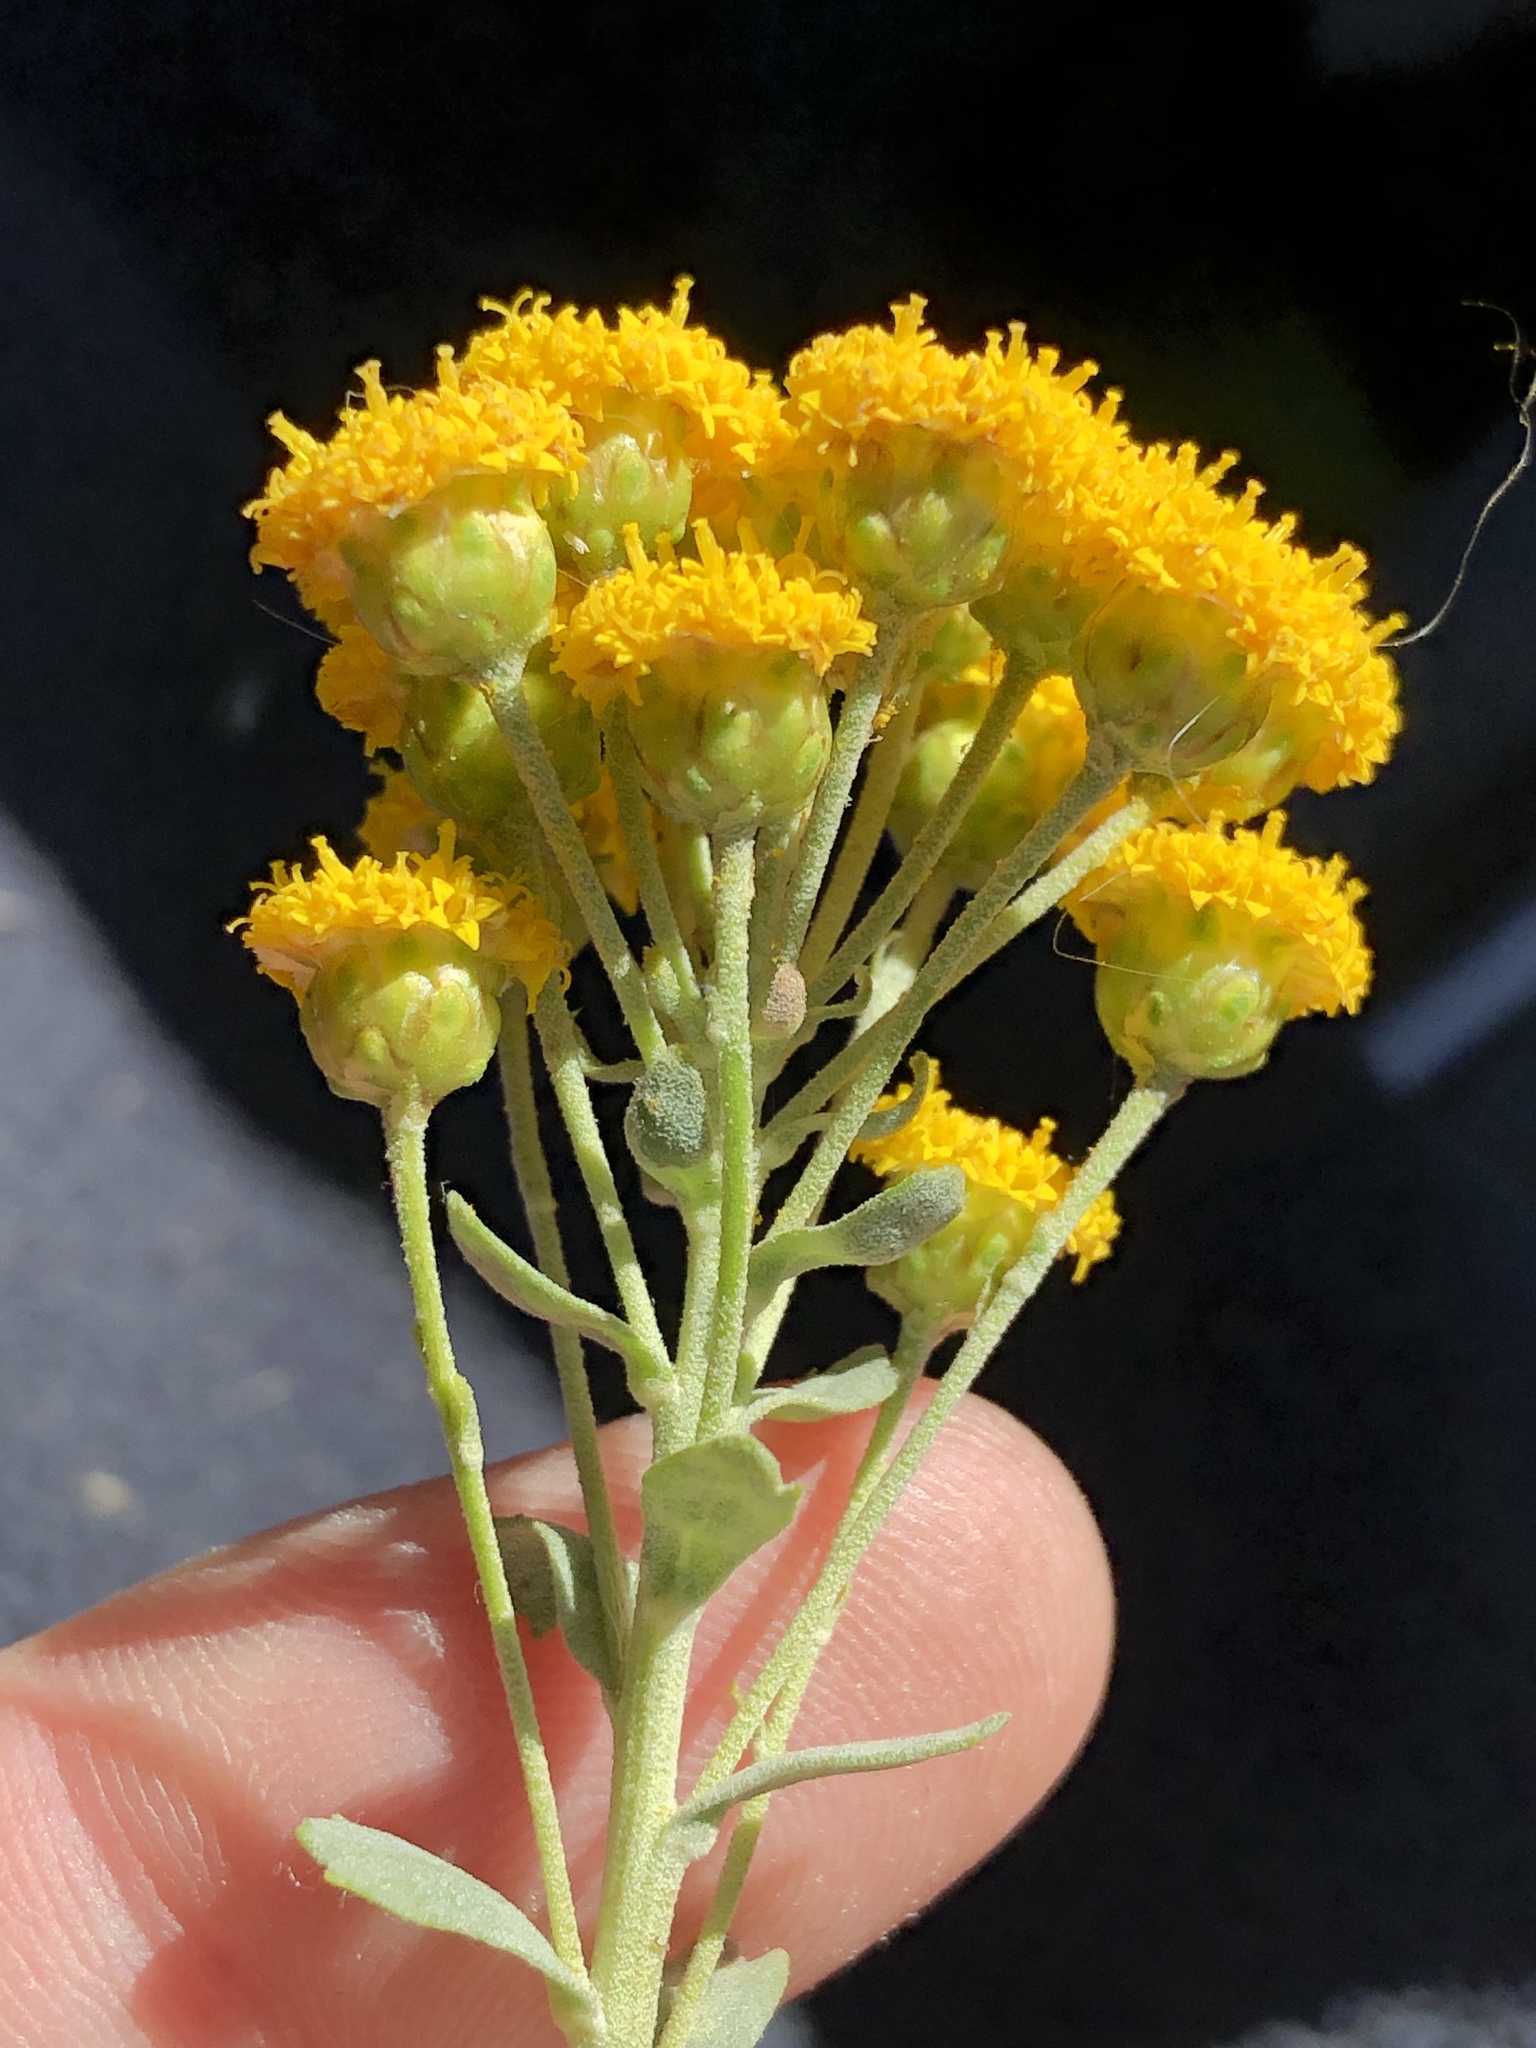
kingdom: Plantae
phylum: Tracheophyta
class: Magnoliopsida
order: Asterales
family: Asteraceae
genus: Athanasia
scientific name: Athanasia trifurcata
